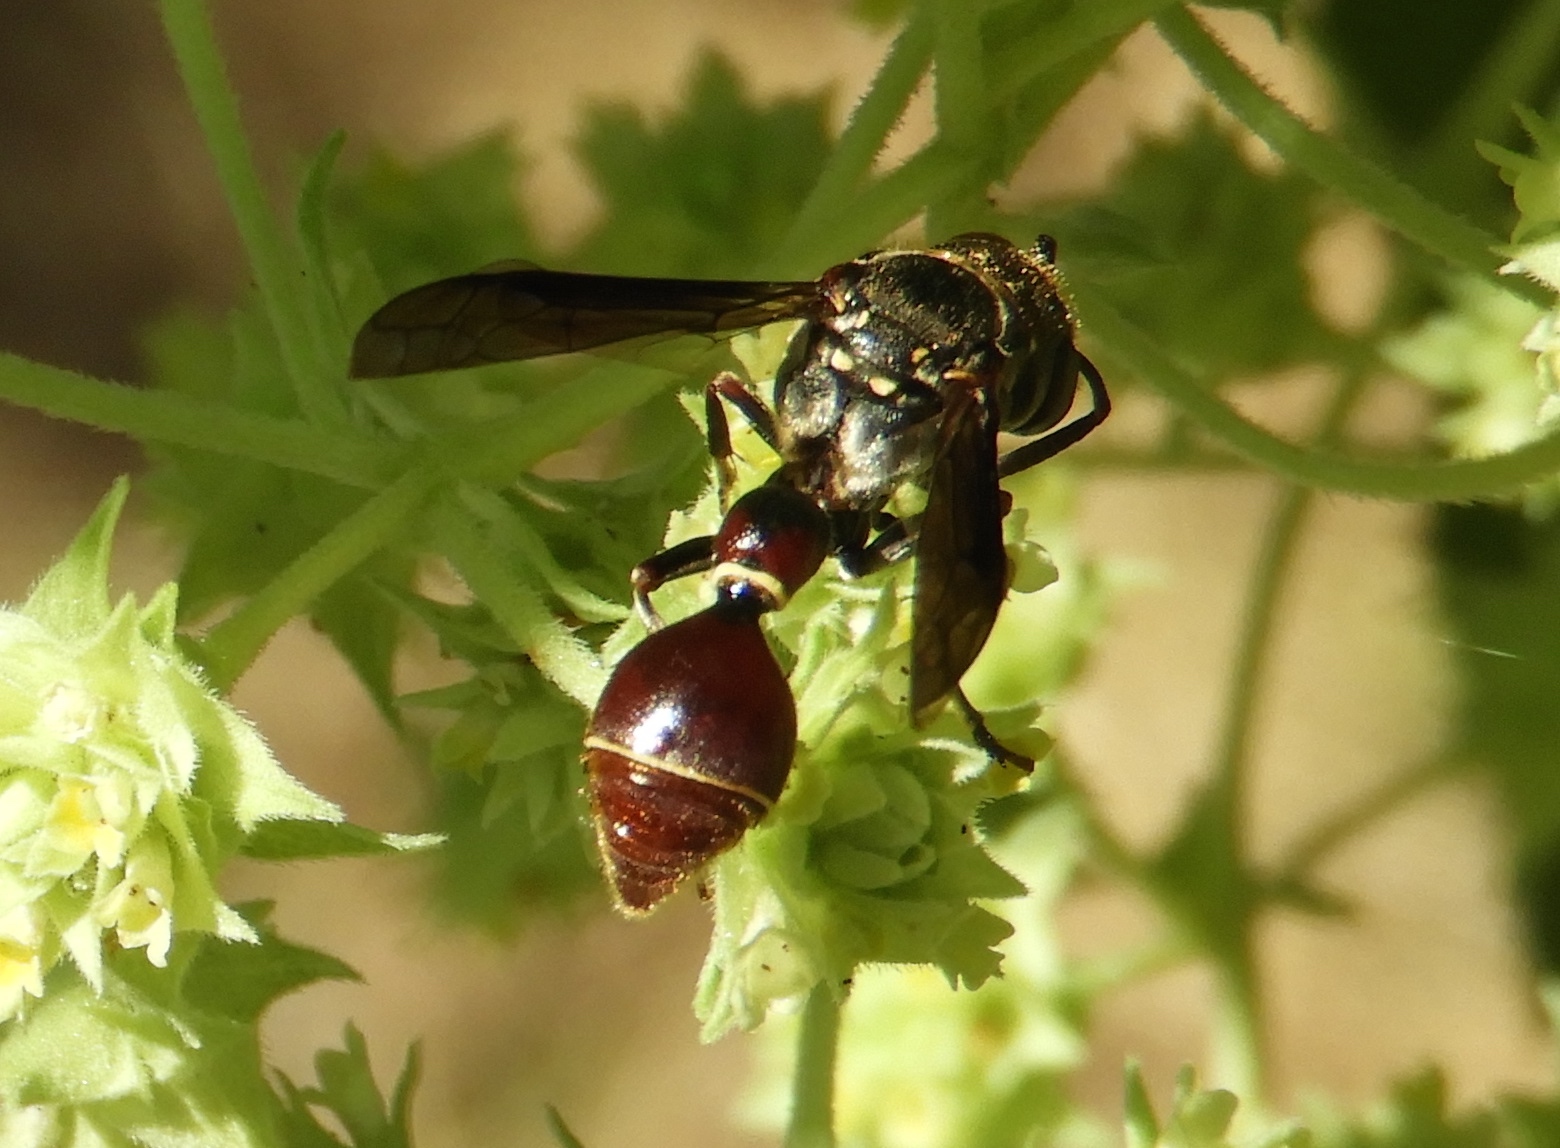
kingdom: Animalia
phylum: Arthropoda
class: Insecta
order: Hymenoptera
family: Eumenidae
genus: Zethus
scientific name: Zethus analis
